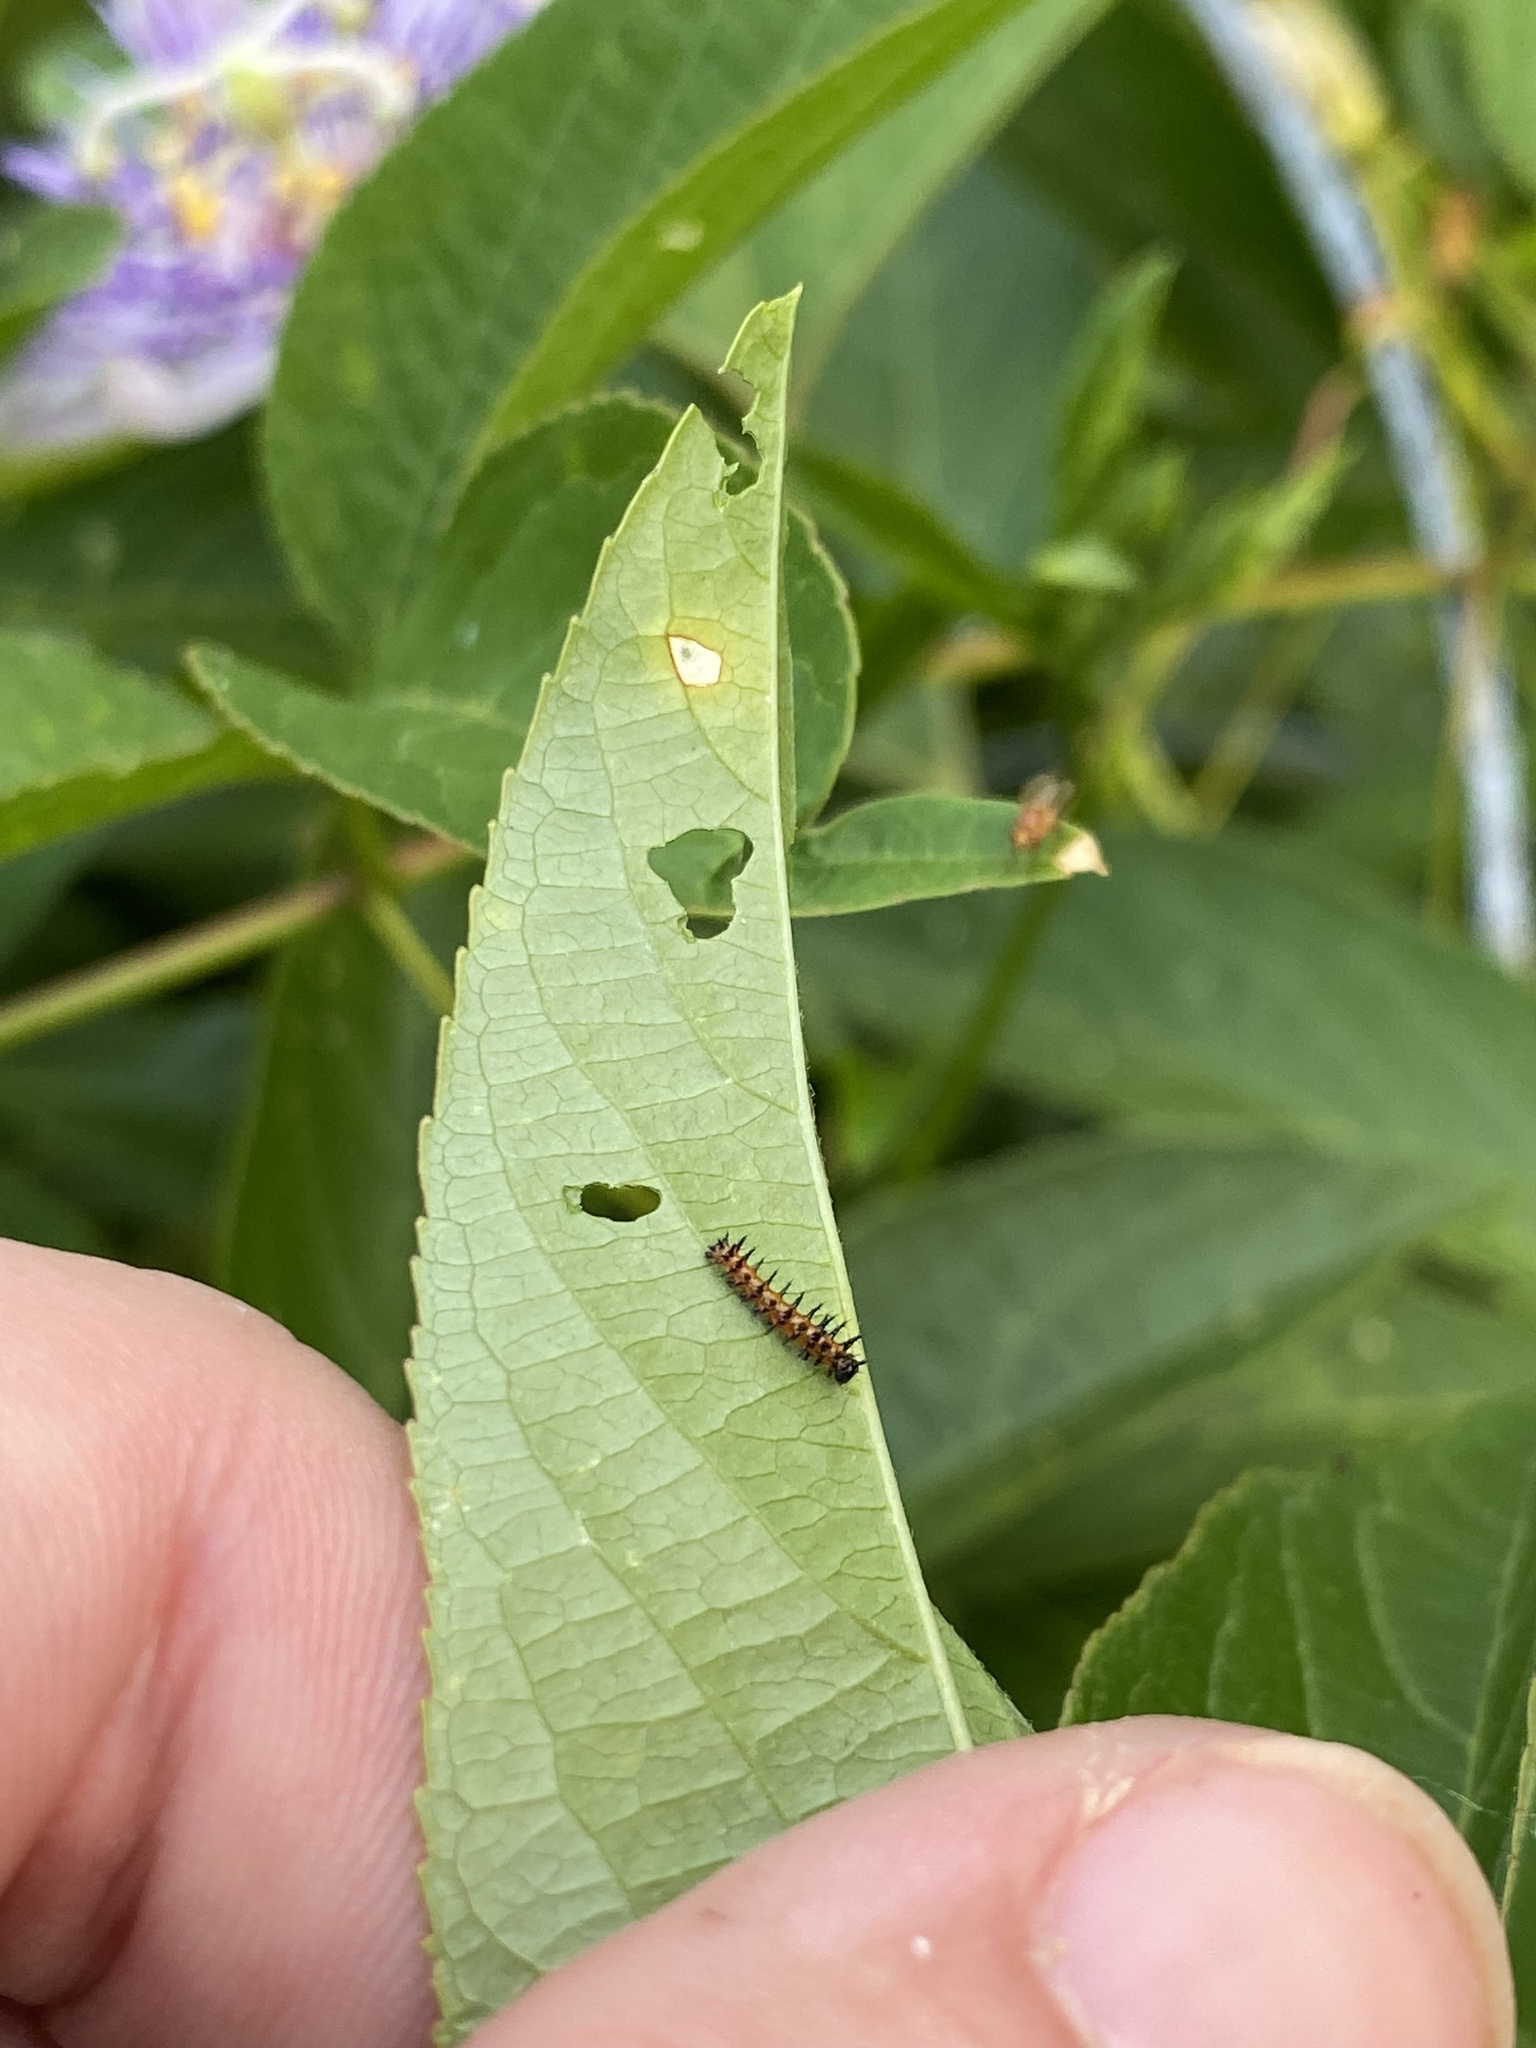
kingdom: Animalia
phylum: Arthropoda
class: Insecta
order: Lepidoptera
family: Nymphalidae
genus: Dione
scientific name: Dione vanillae
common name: Gulf fritillary
